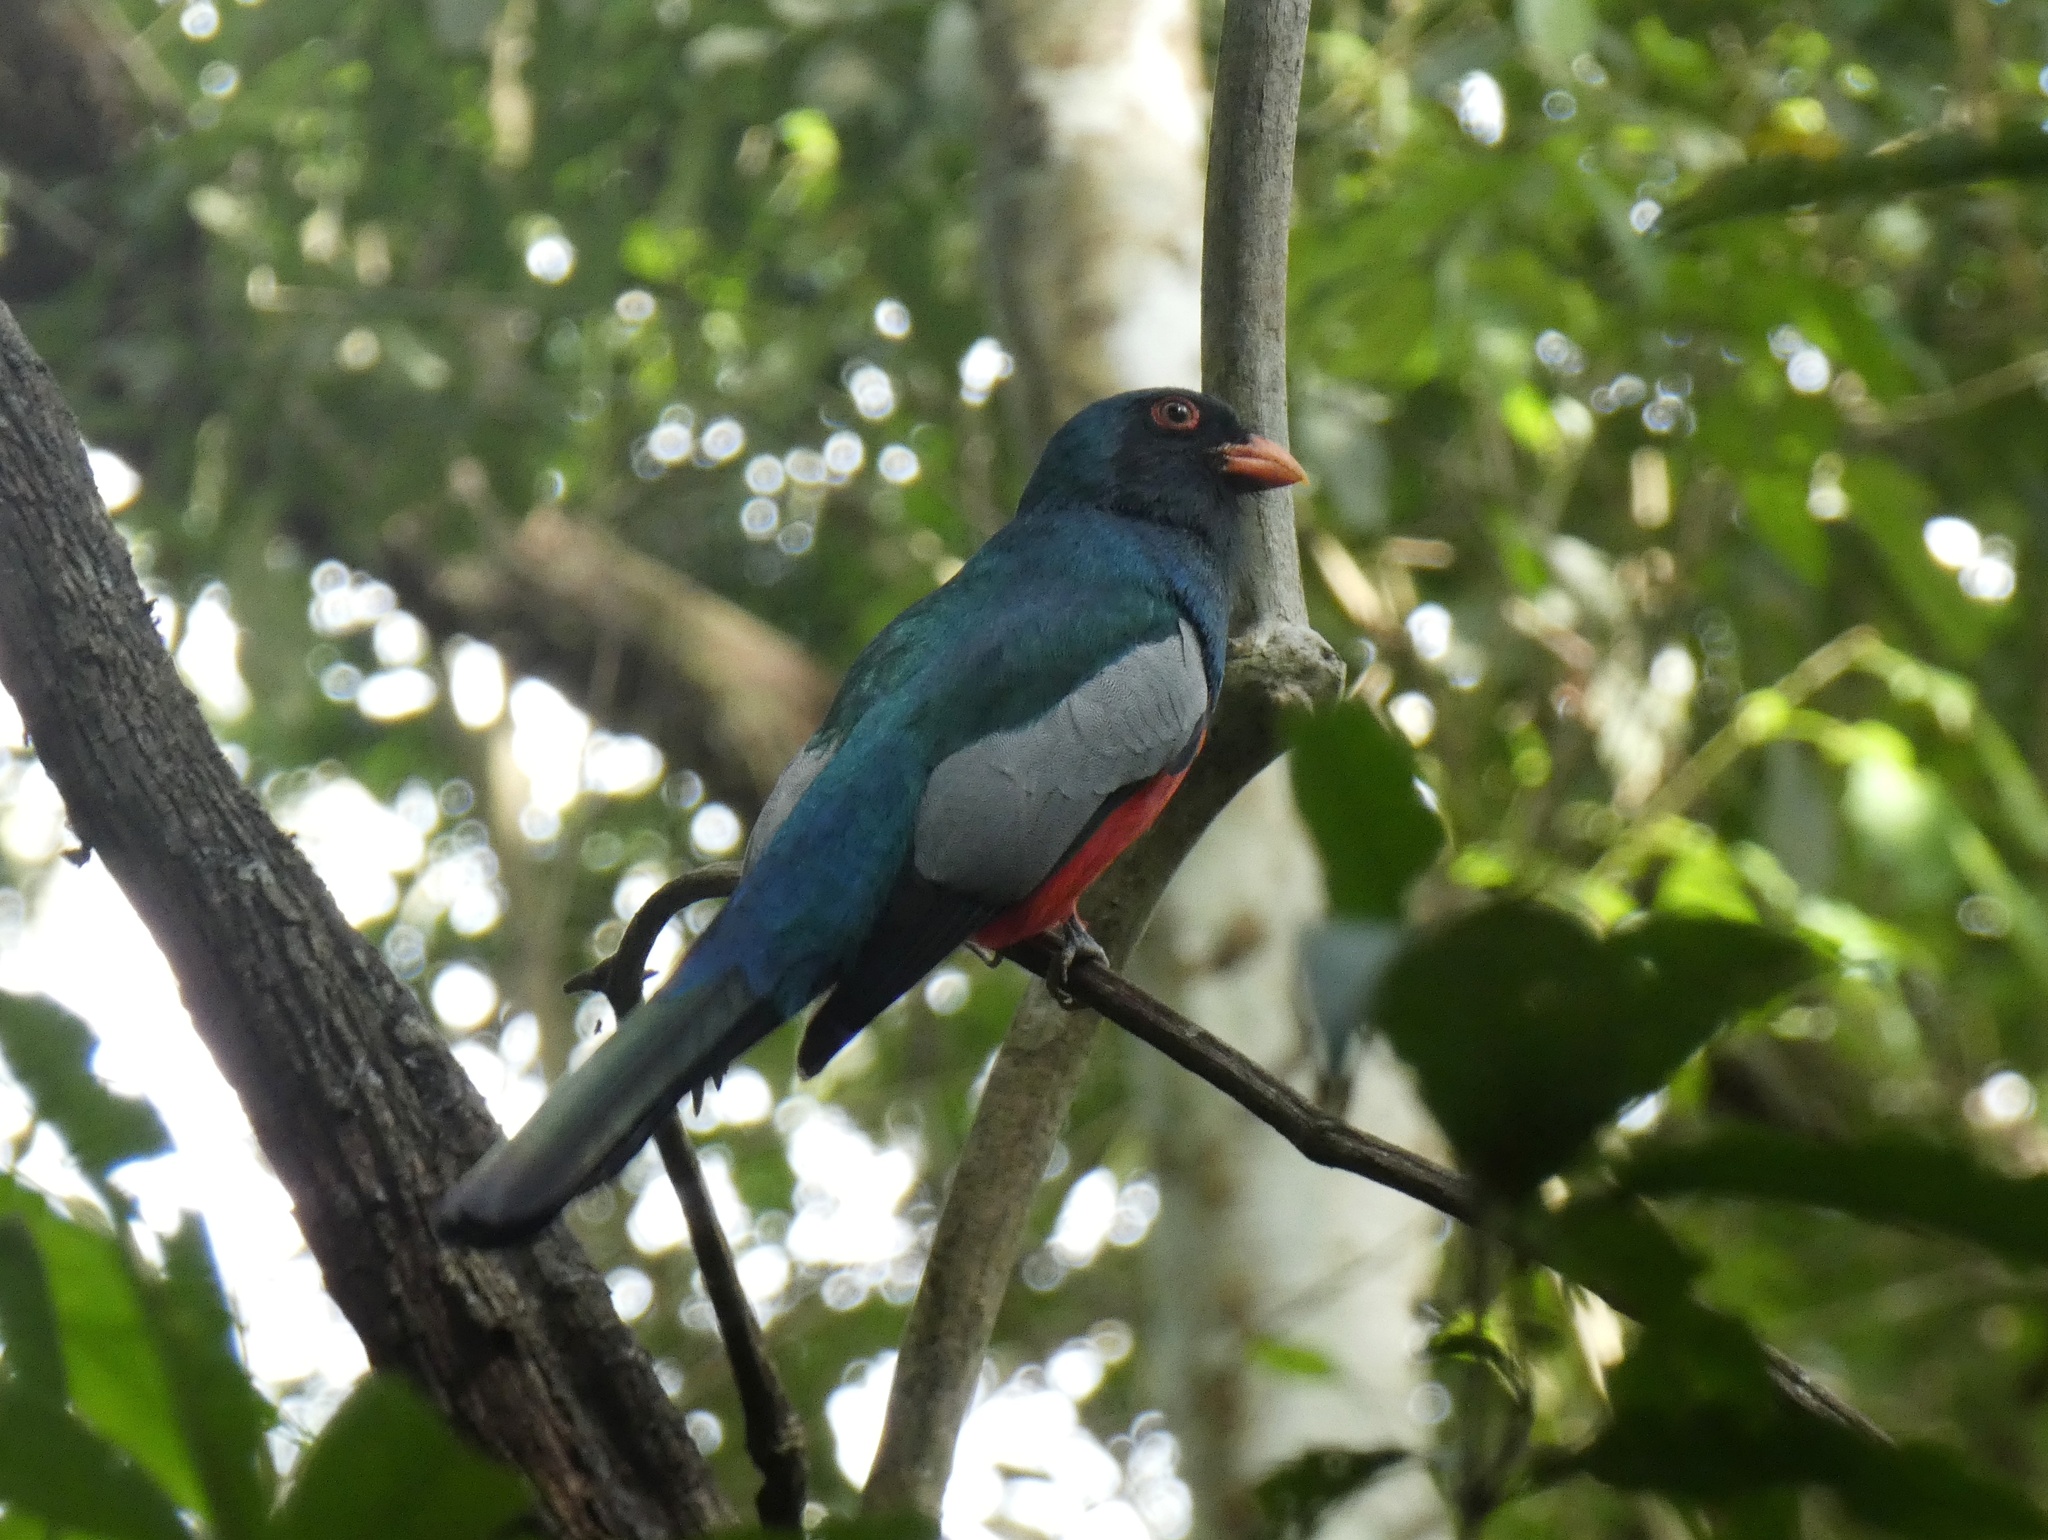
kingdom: Animalia
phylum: Chordata
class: Aves
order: Trogoniformes
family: Trogonidae
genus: Trogon
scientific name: Trogon massena
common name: Slaty-tailed trogon
